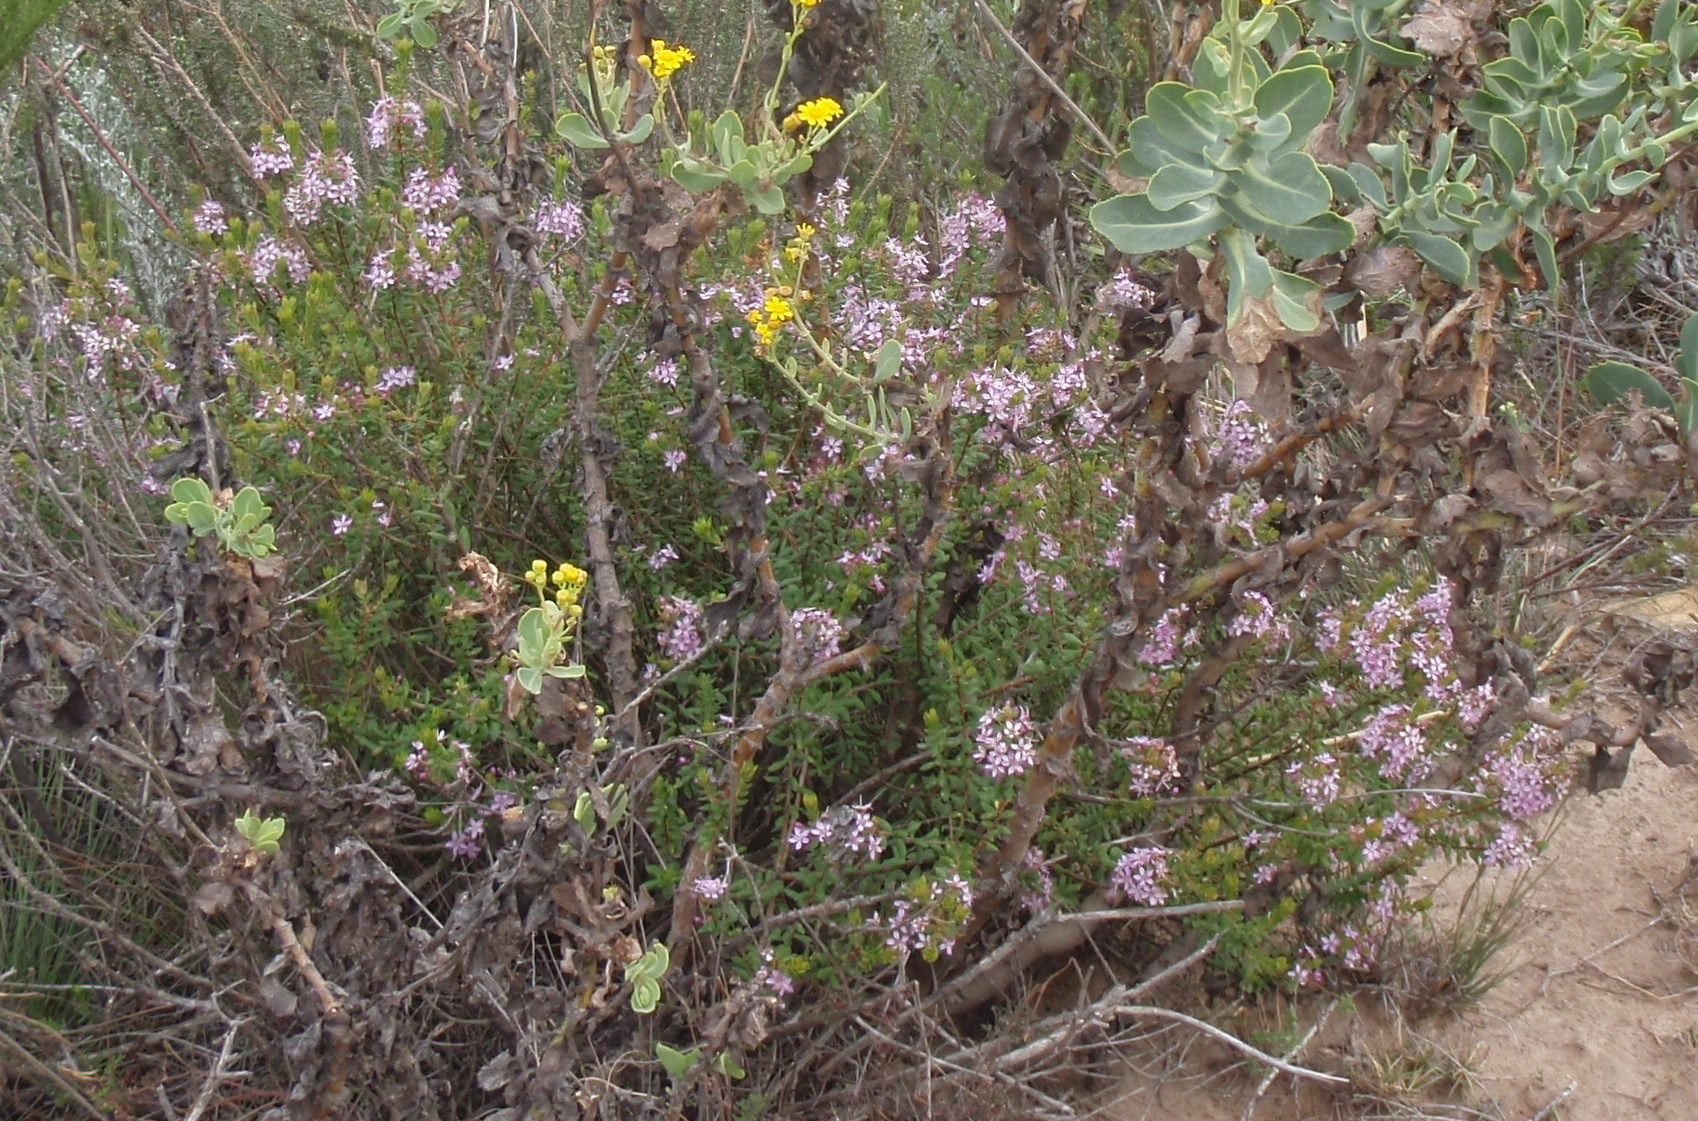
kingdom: Plantae
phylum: Tracheophyta
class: Magnoliopsida
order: Sapindales
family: Rutaceae
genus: Agathosma
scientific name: Agathosma ovata
